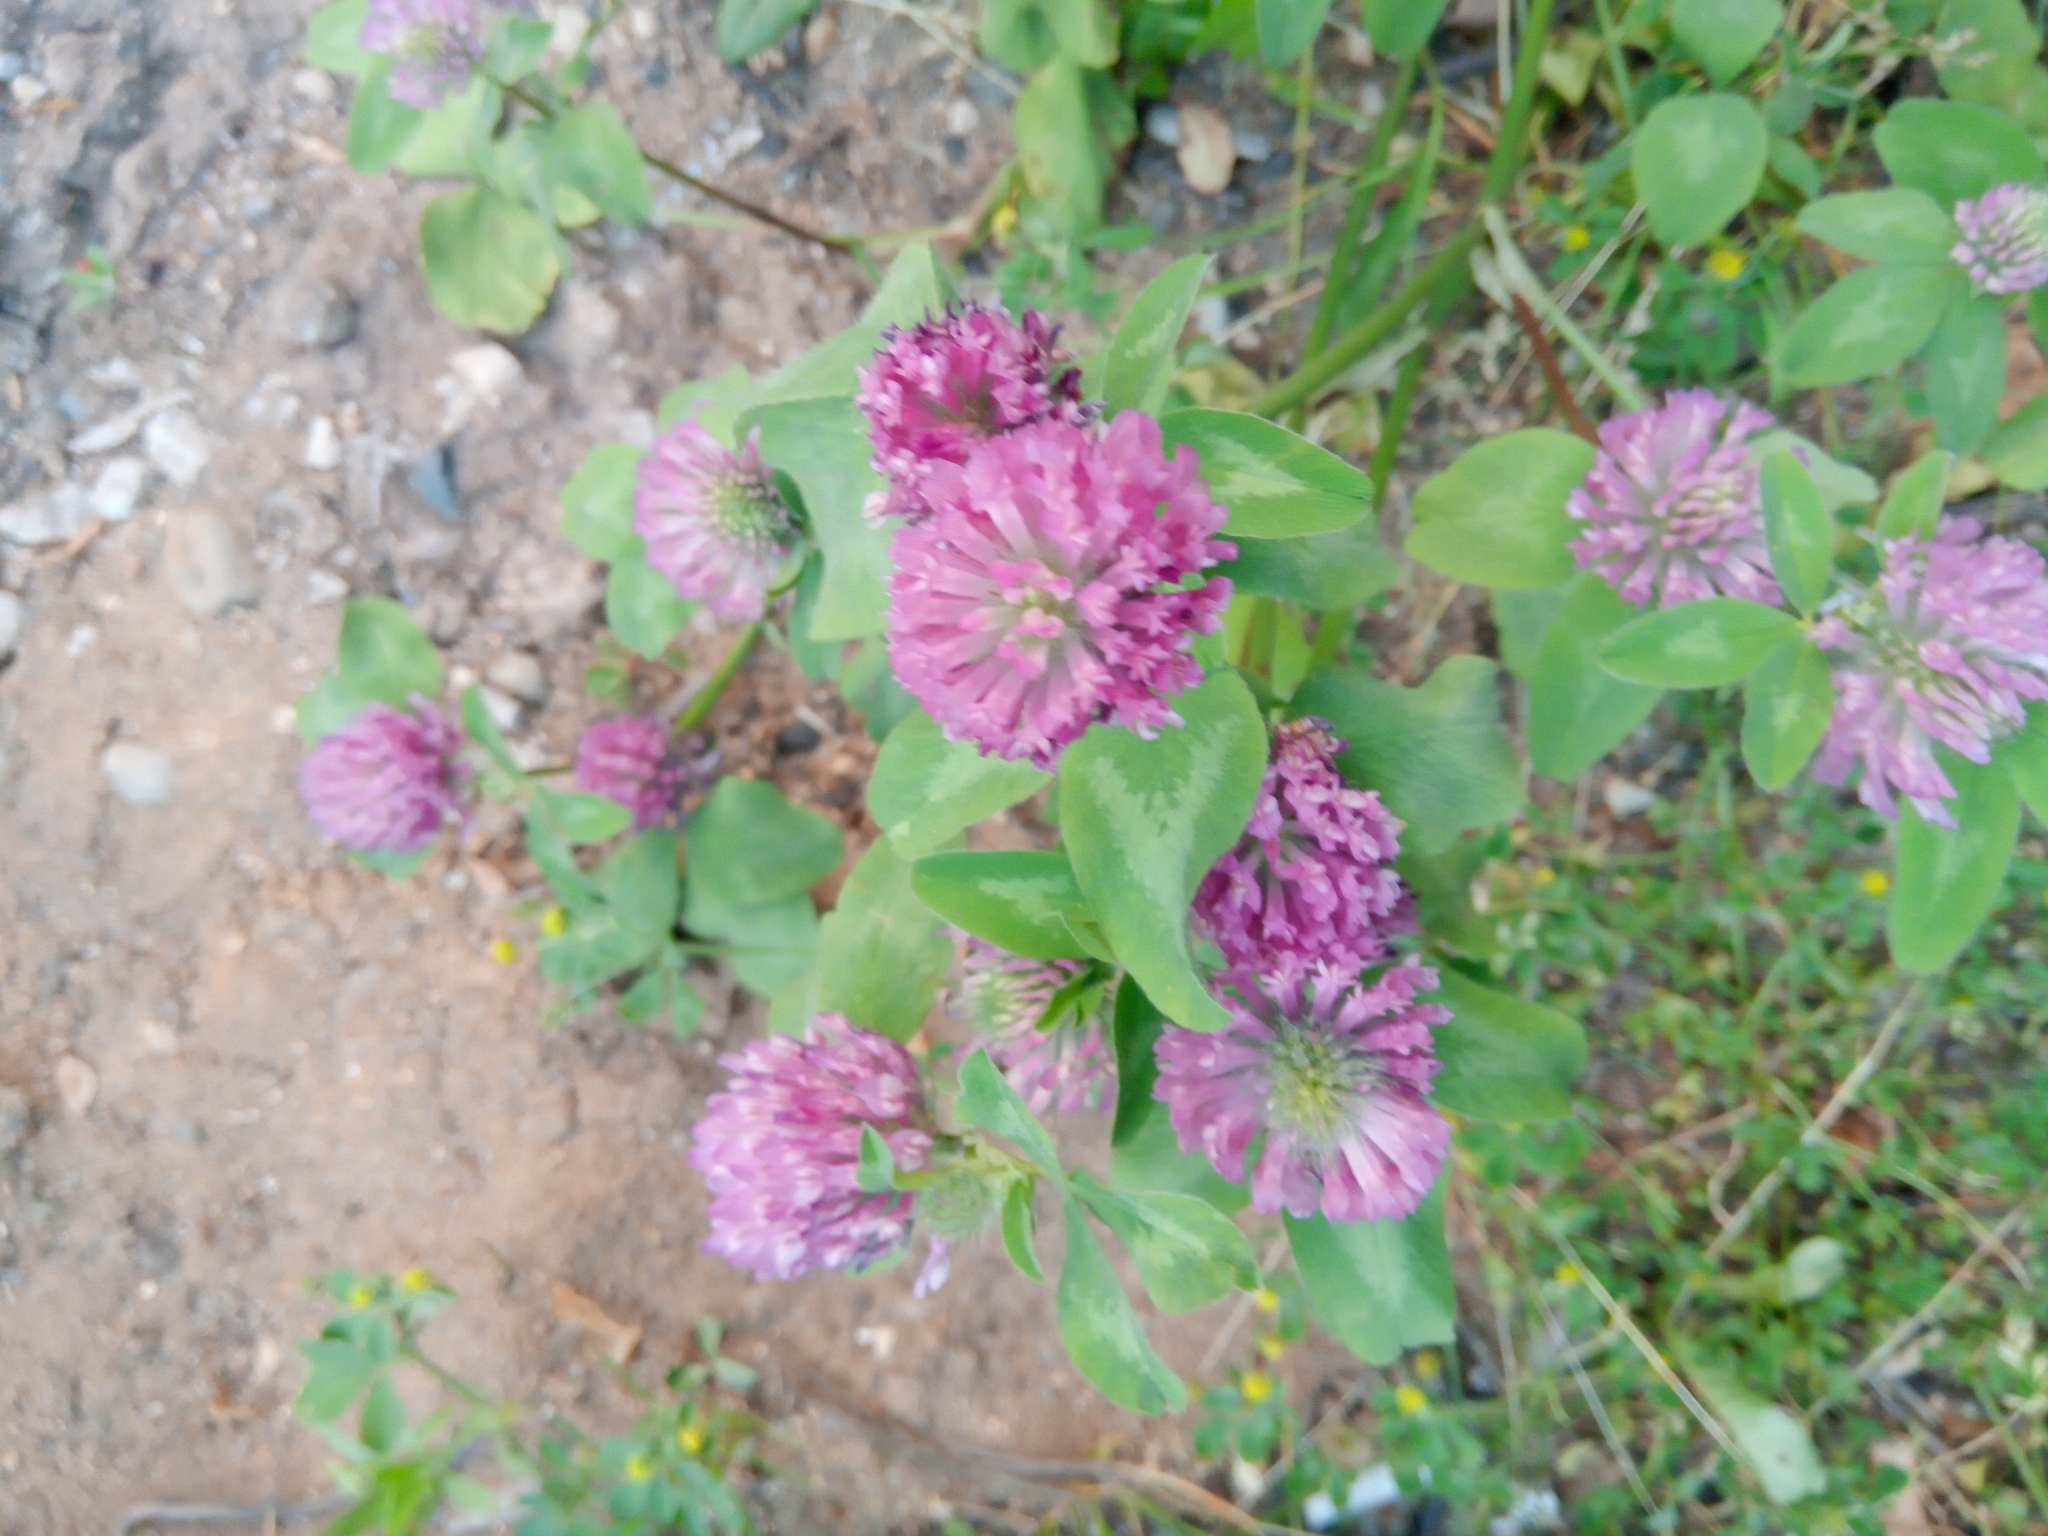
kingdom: Plantae
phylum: Tracheophyta
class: Magnoliopsida
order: Fabales
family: Fabaceae
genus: Trifolium
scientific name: Trifolium pratense
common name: Red clover
